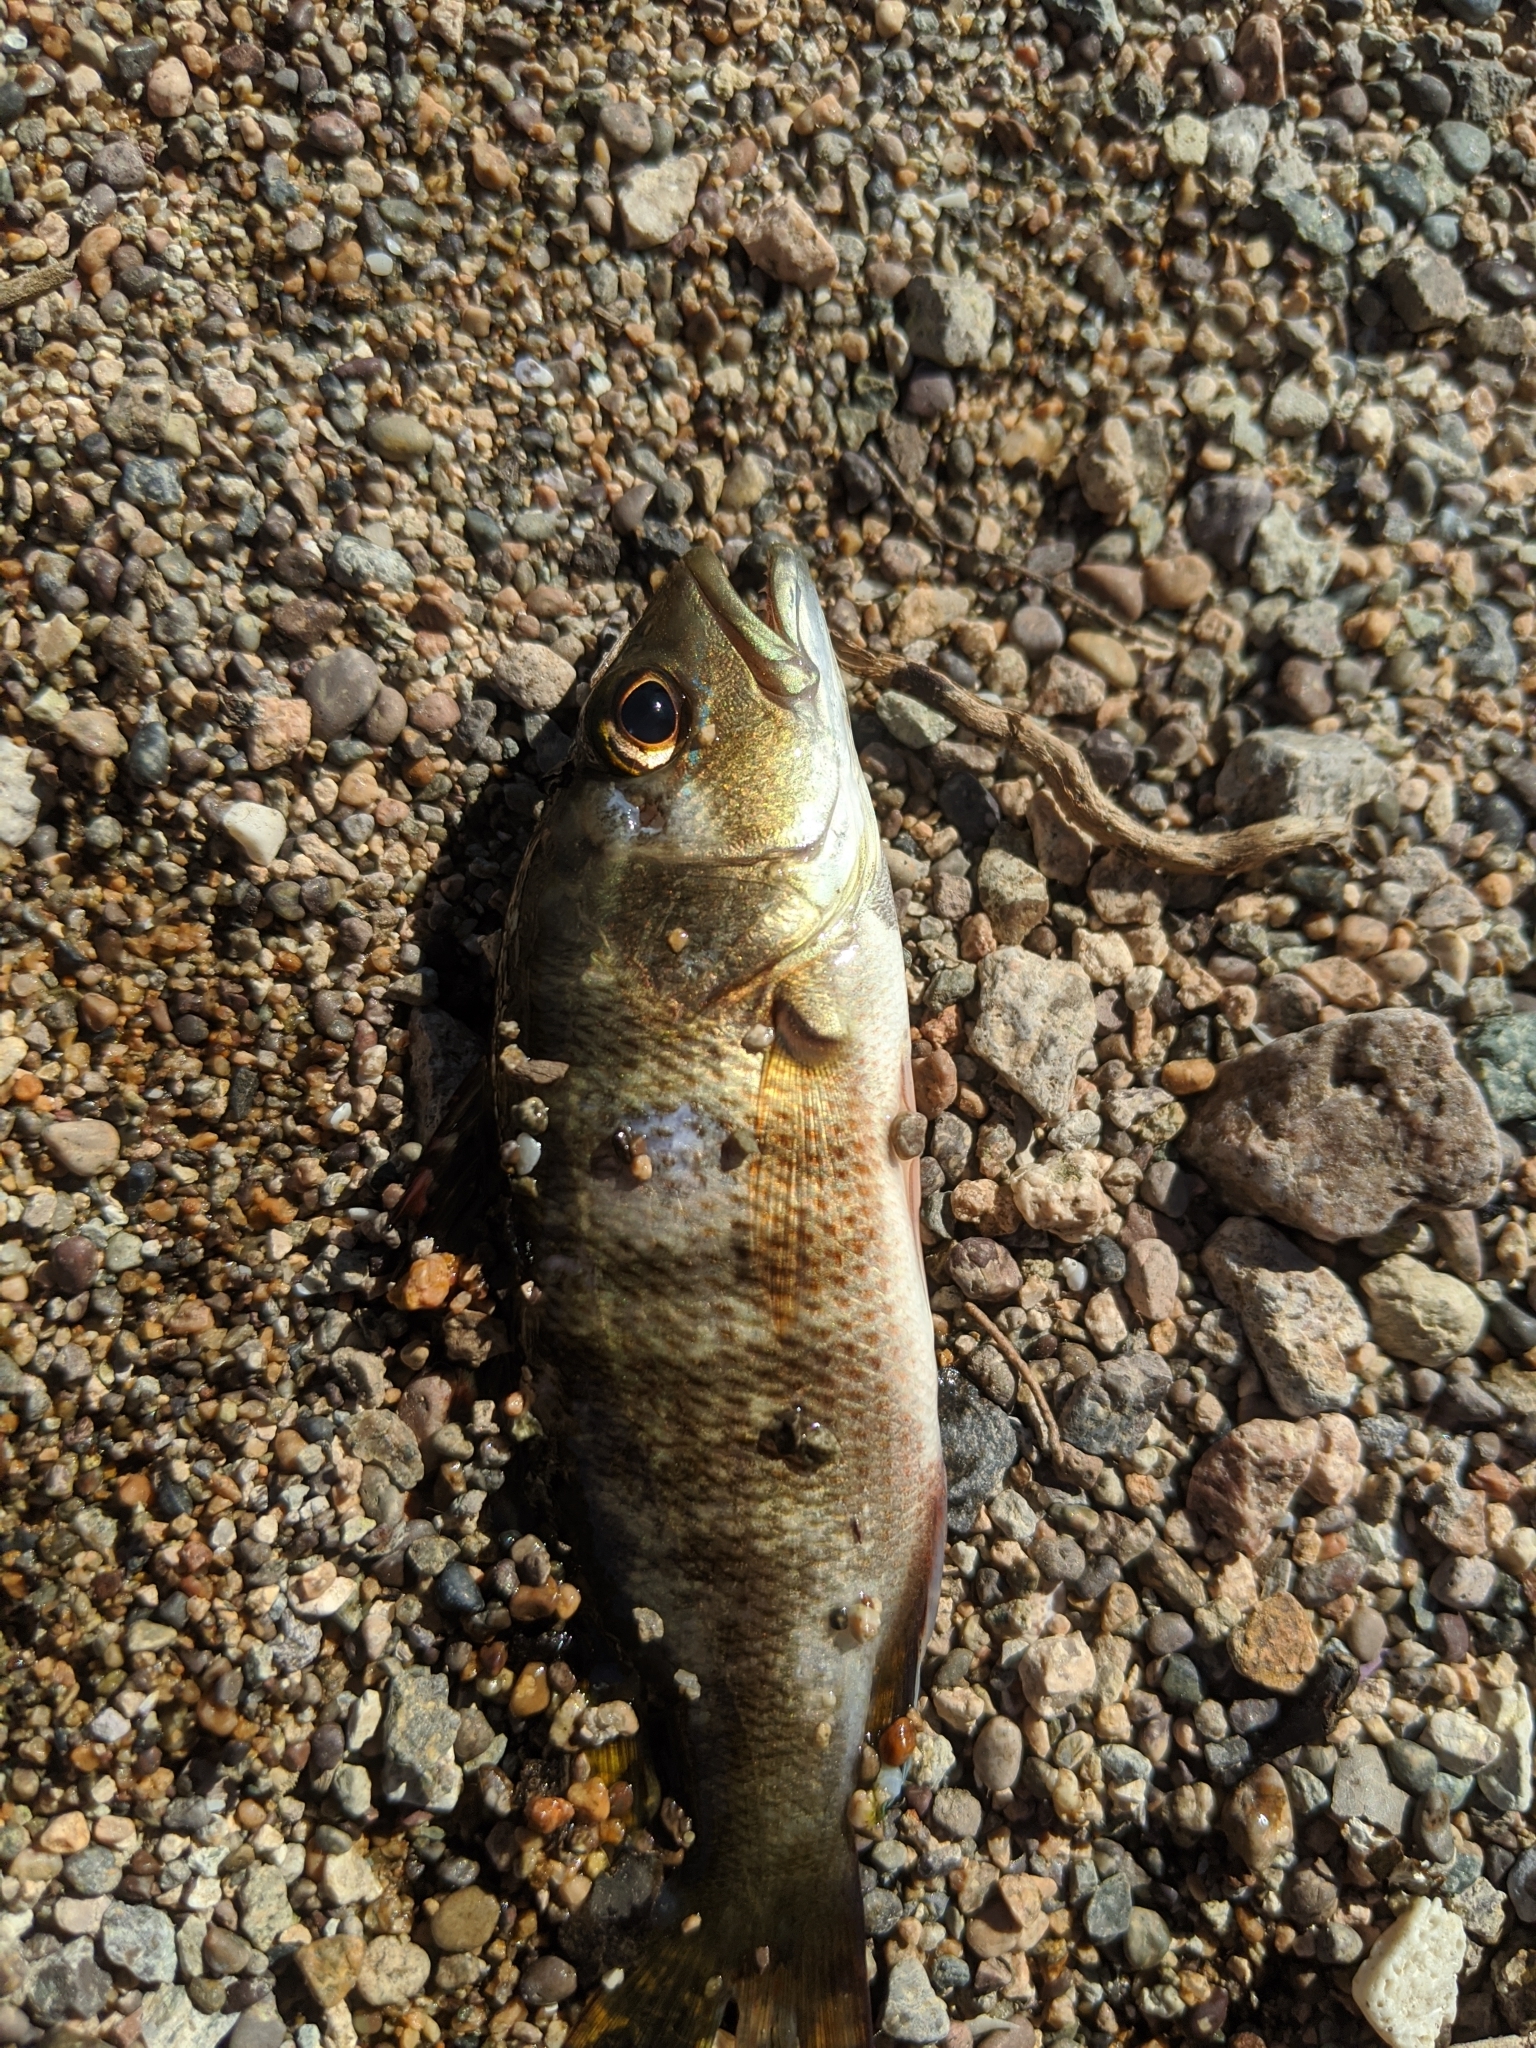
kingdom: Animalia
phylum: Chordata
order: Perciformes
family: Lutjanidae
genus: Lutjanus
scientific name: Lutjanus novemfasciatus
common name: Pacific dog snapper
